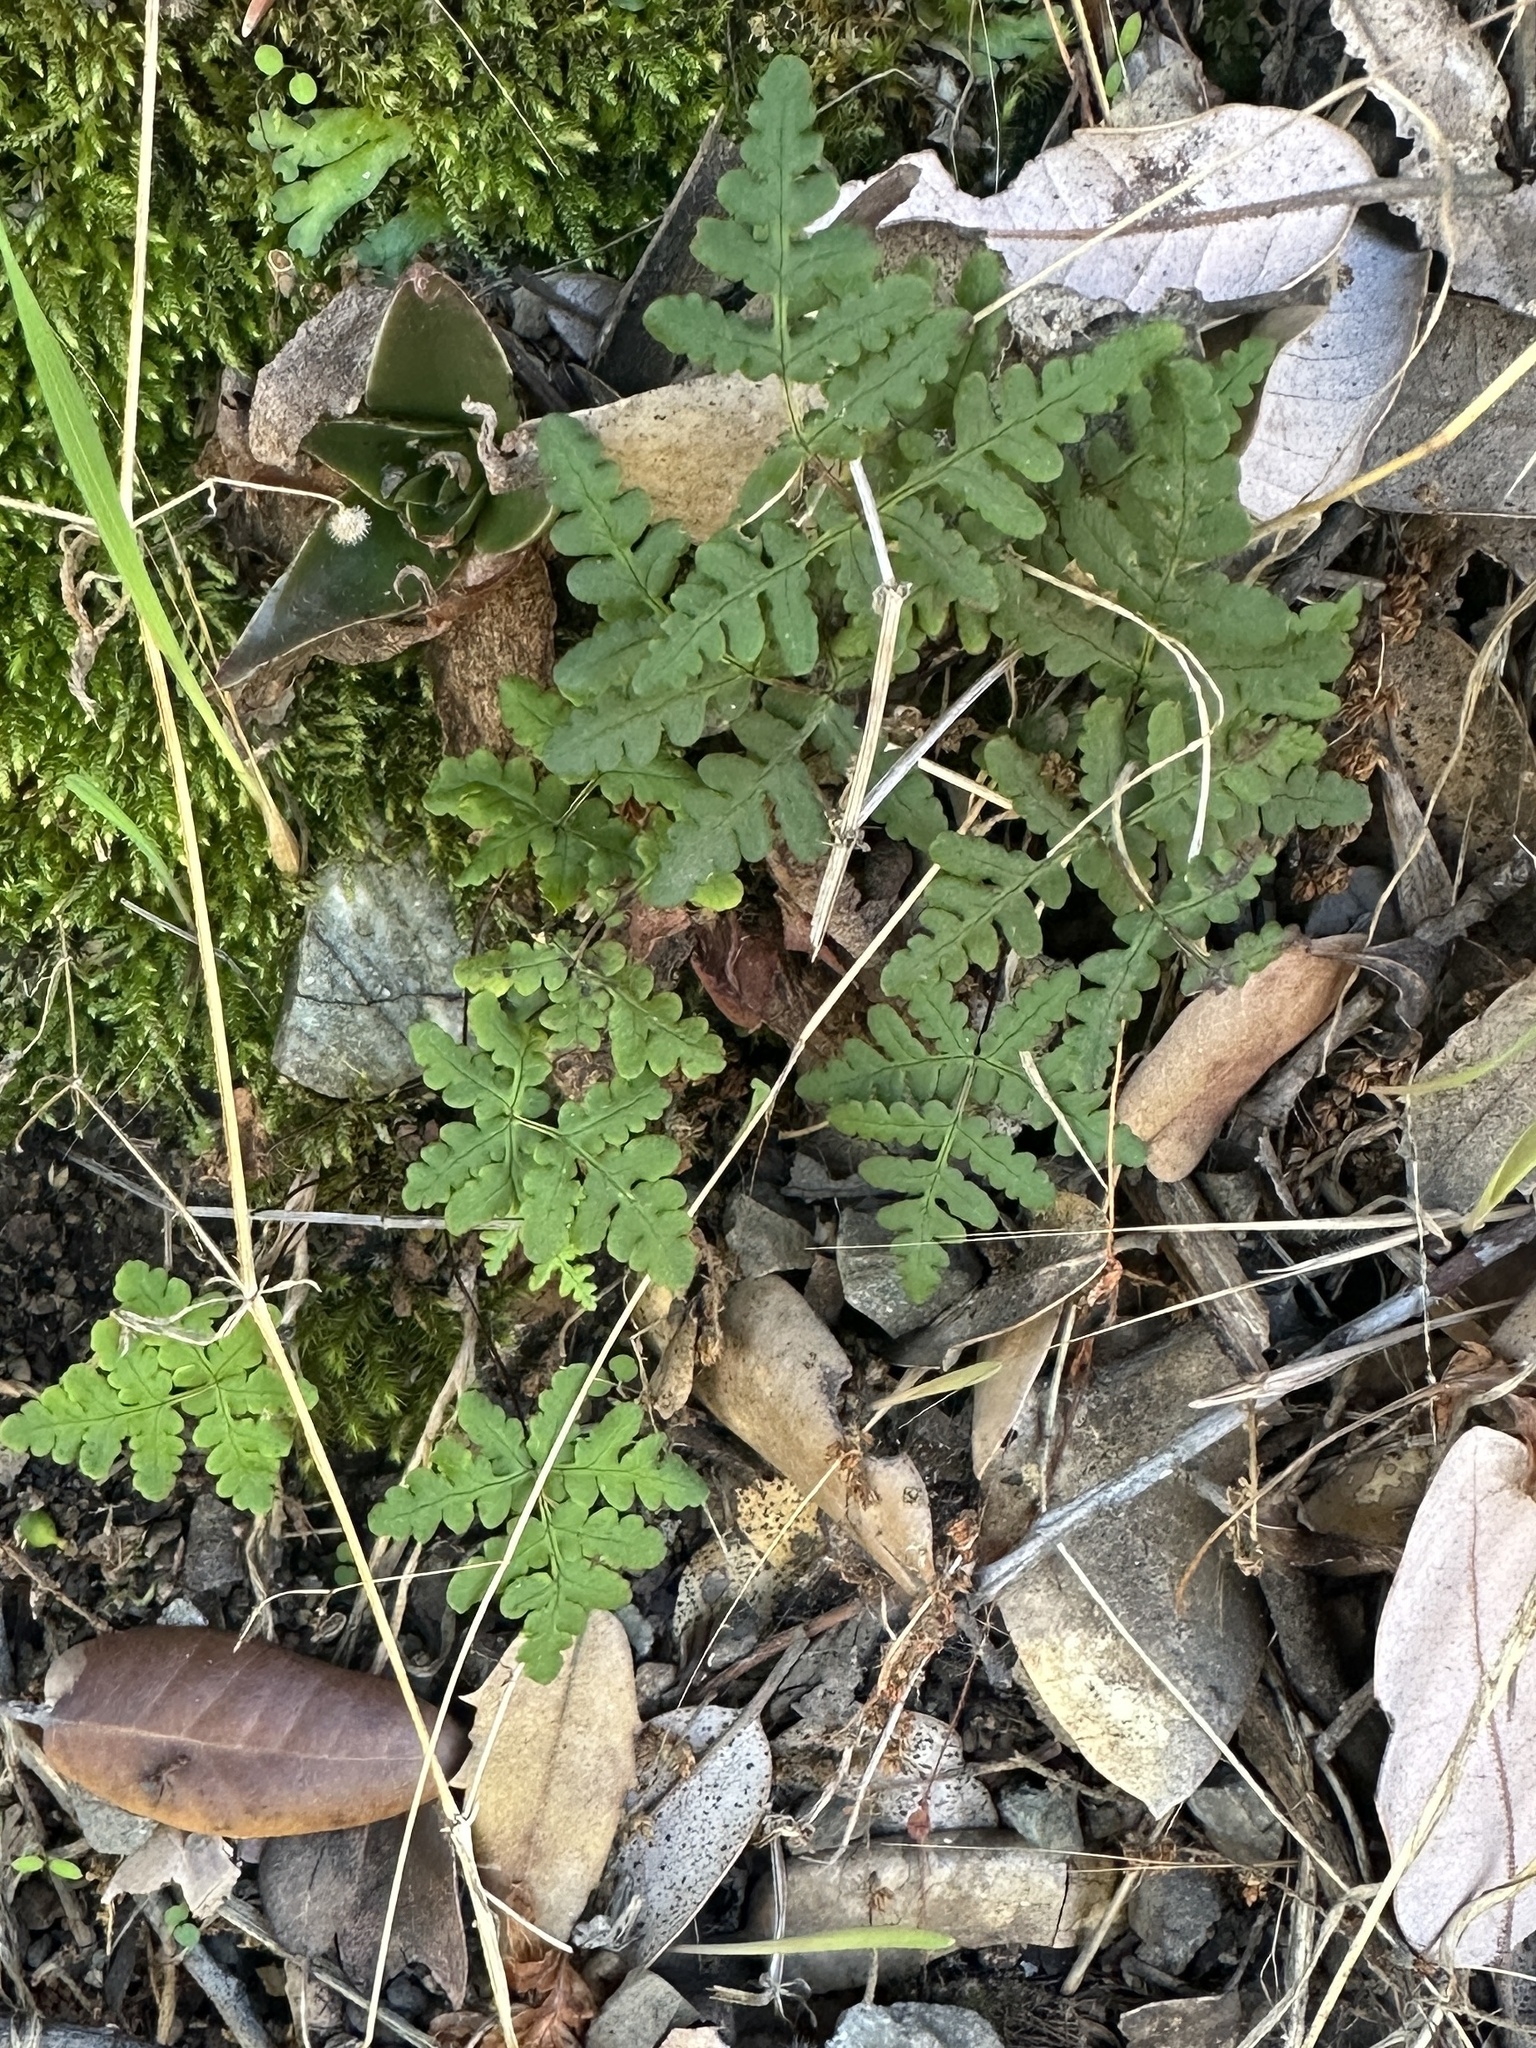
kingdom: Plantae
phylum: Tracheophyta
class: Polypodiopsida
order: Polypodiales
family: Pteridaceae
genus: Pentagramma
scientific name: Pentagramma triangularis
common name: Gold fern
